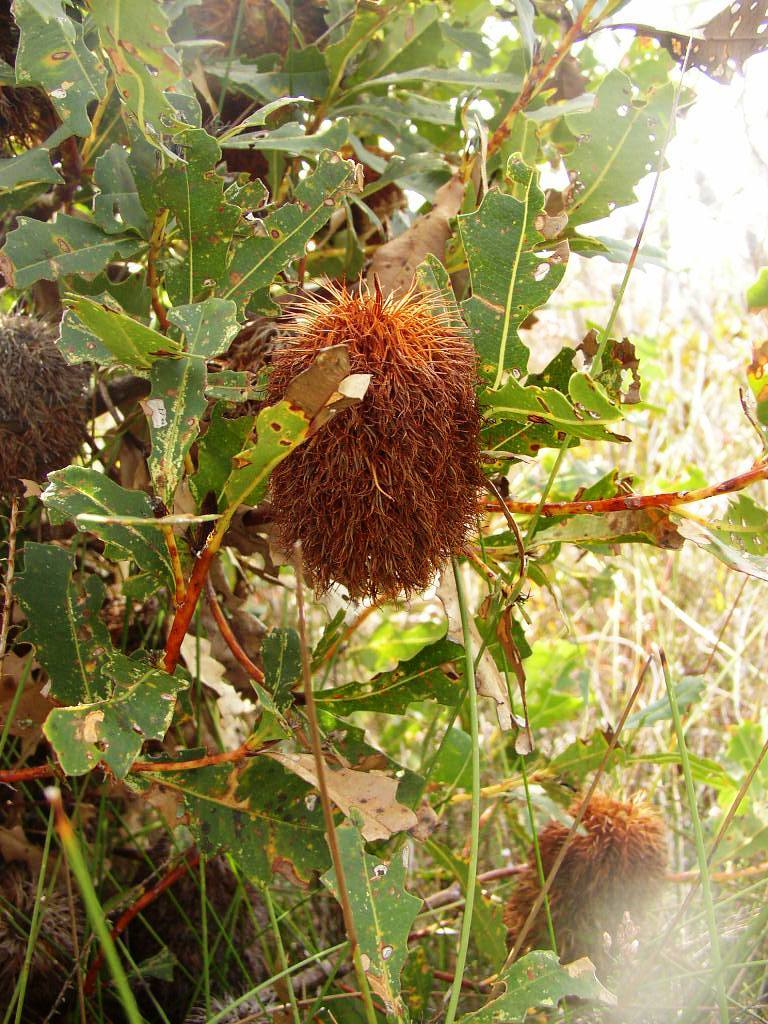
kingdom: Plantae
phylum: Tracheophyta
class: Magnoliopsida
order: Proteales
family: Proteaceae
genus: Banksia
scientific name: Banksia quercifolia
